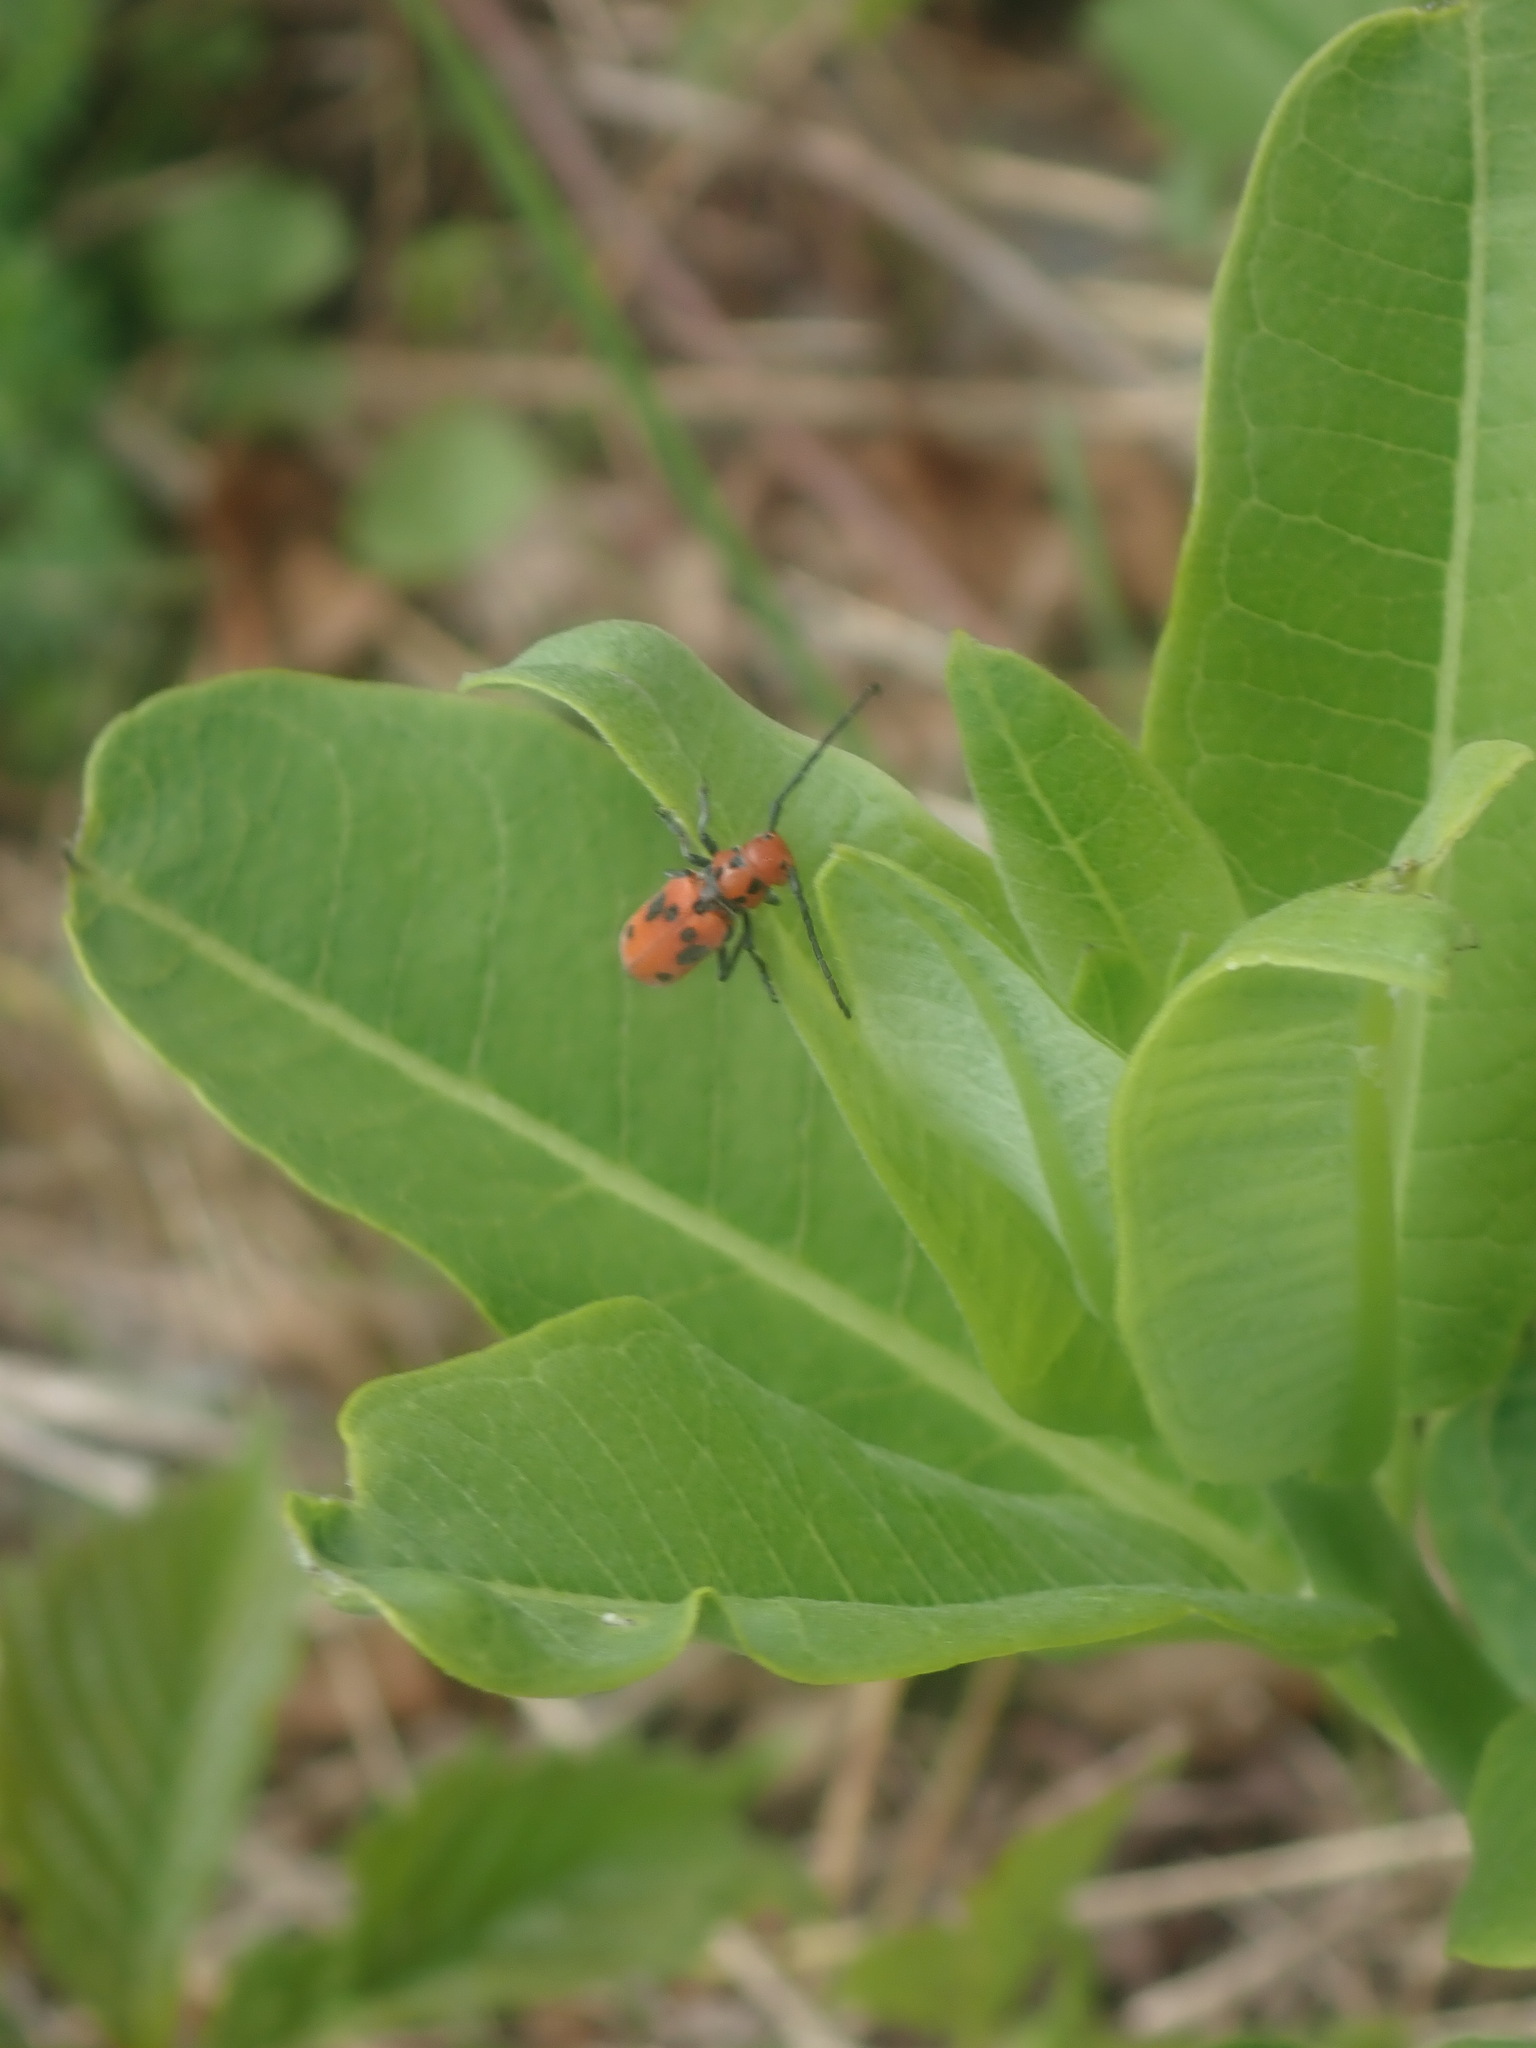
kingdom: Animalia
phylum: Arthropoda
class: Insecta
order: Coleoptera
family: Cerambycidae
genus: Tetraopes
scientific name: Tetraopes tetrophthalmus
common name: Red milkweed beetle
